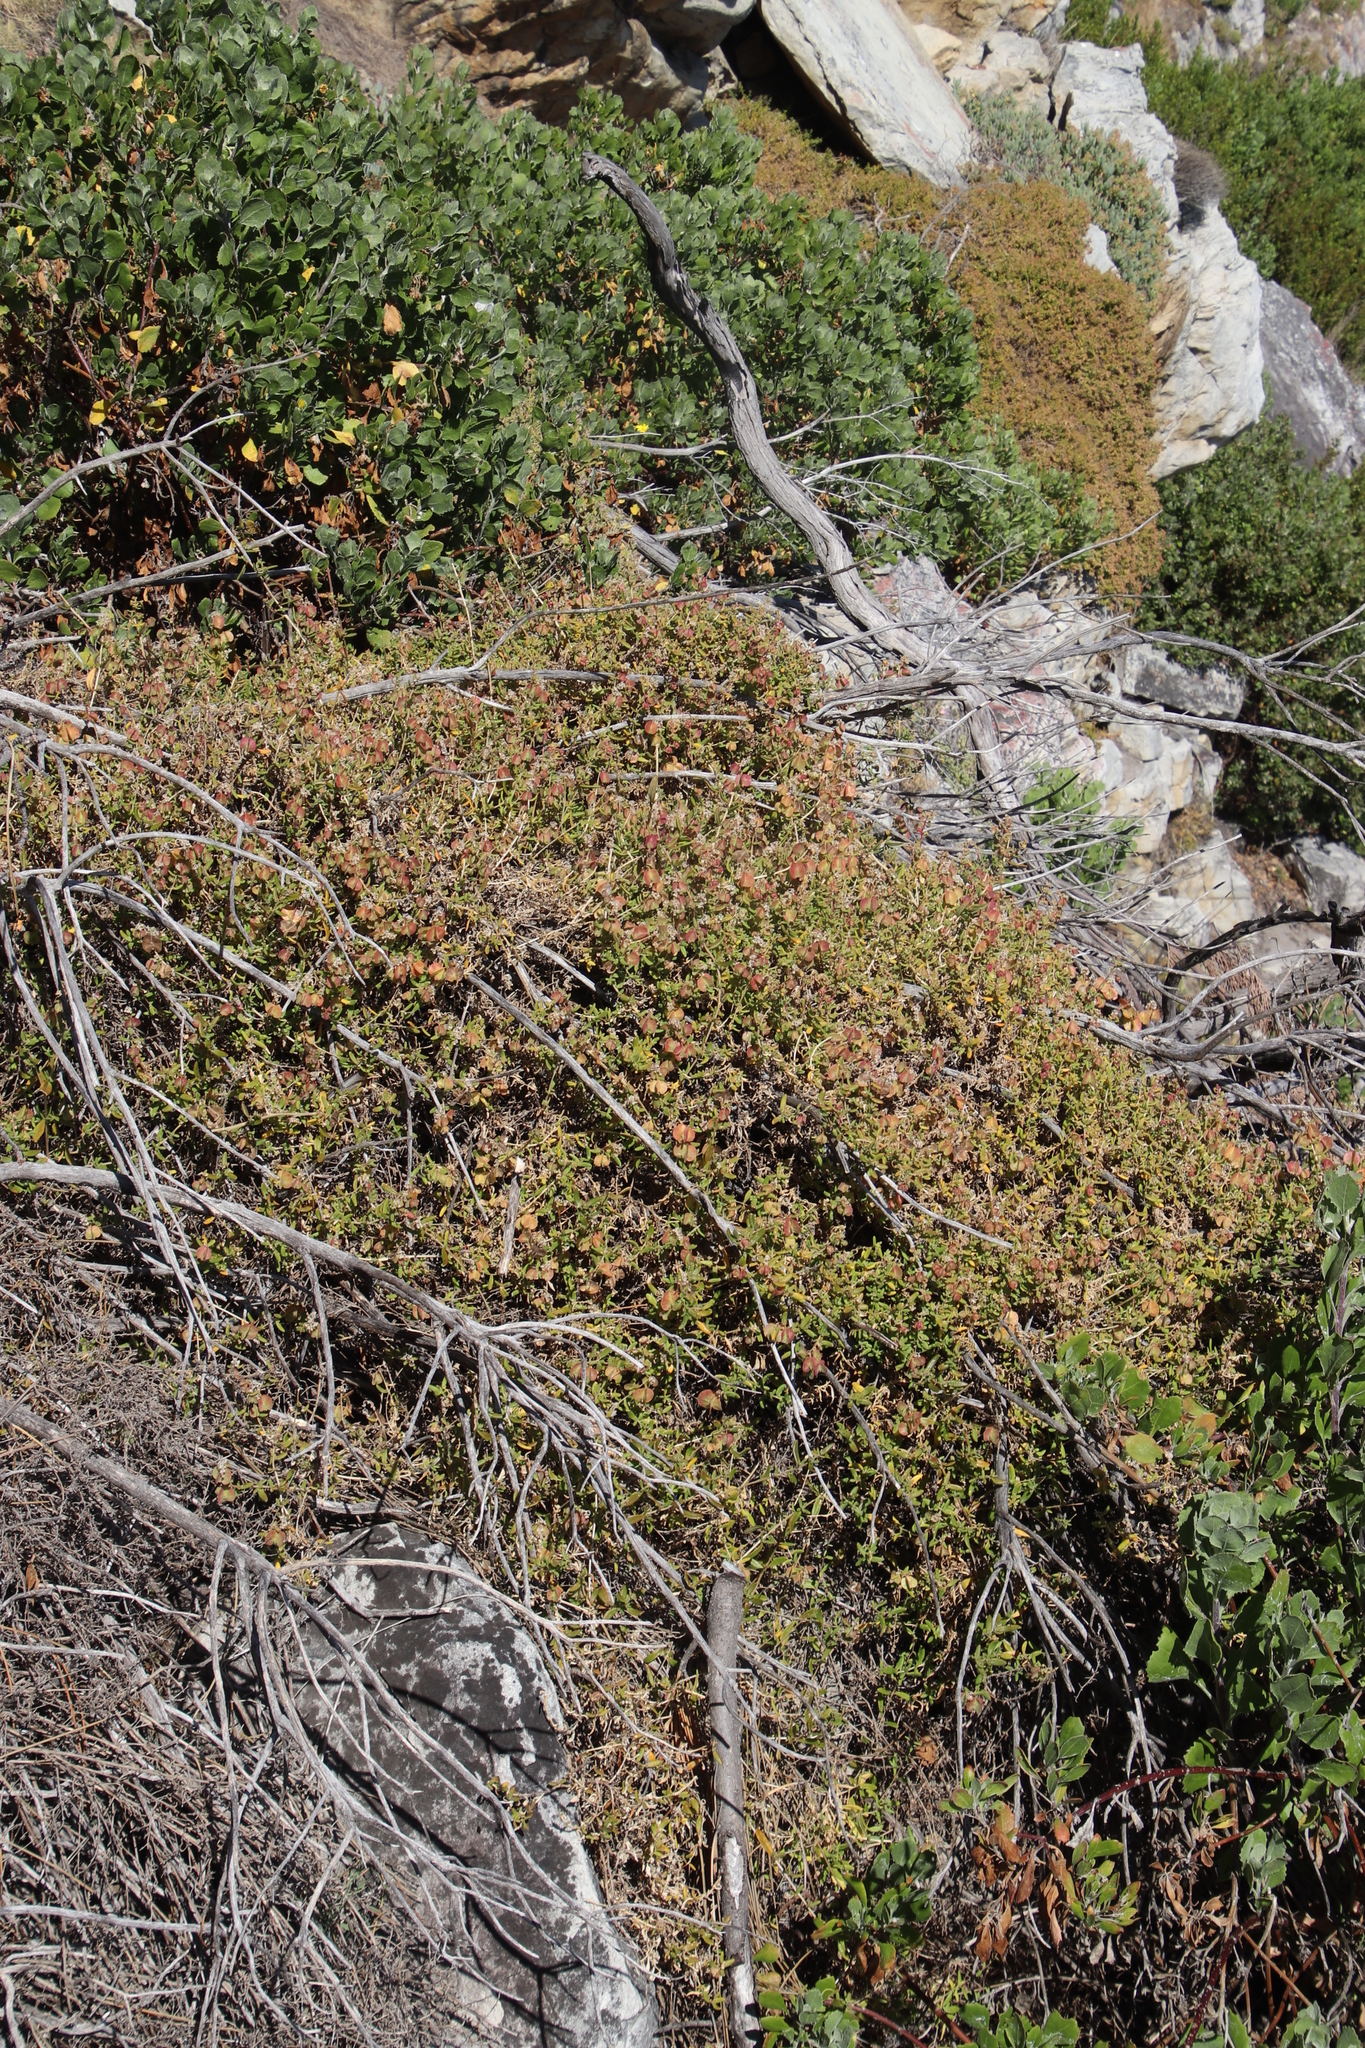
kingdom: Plantae
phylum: Tracheophyta
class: Magnoliopsida
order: Caryophyllales
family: Aizoaceae
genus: Tetragonia
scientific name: Tetragonia fruticosa
